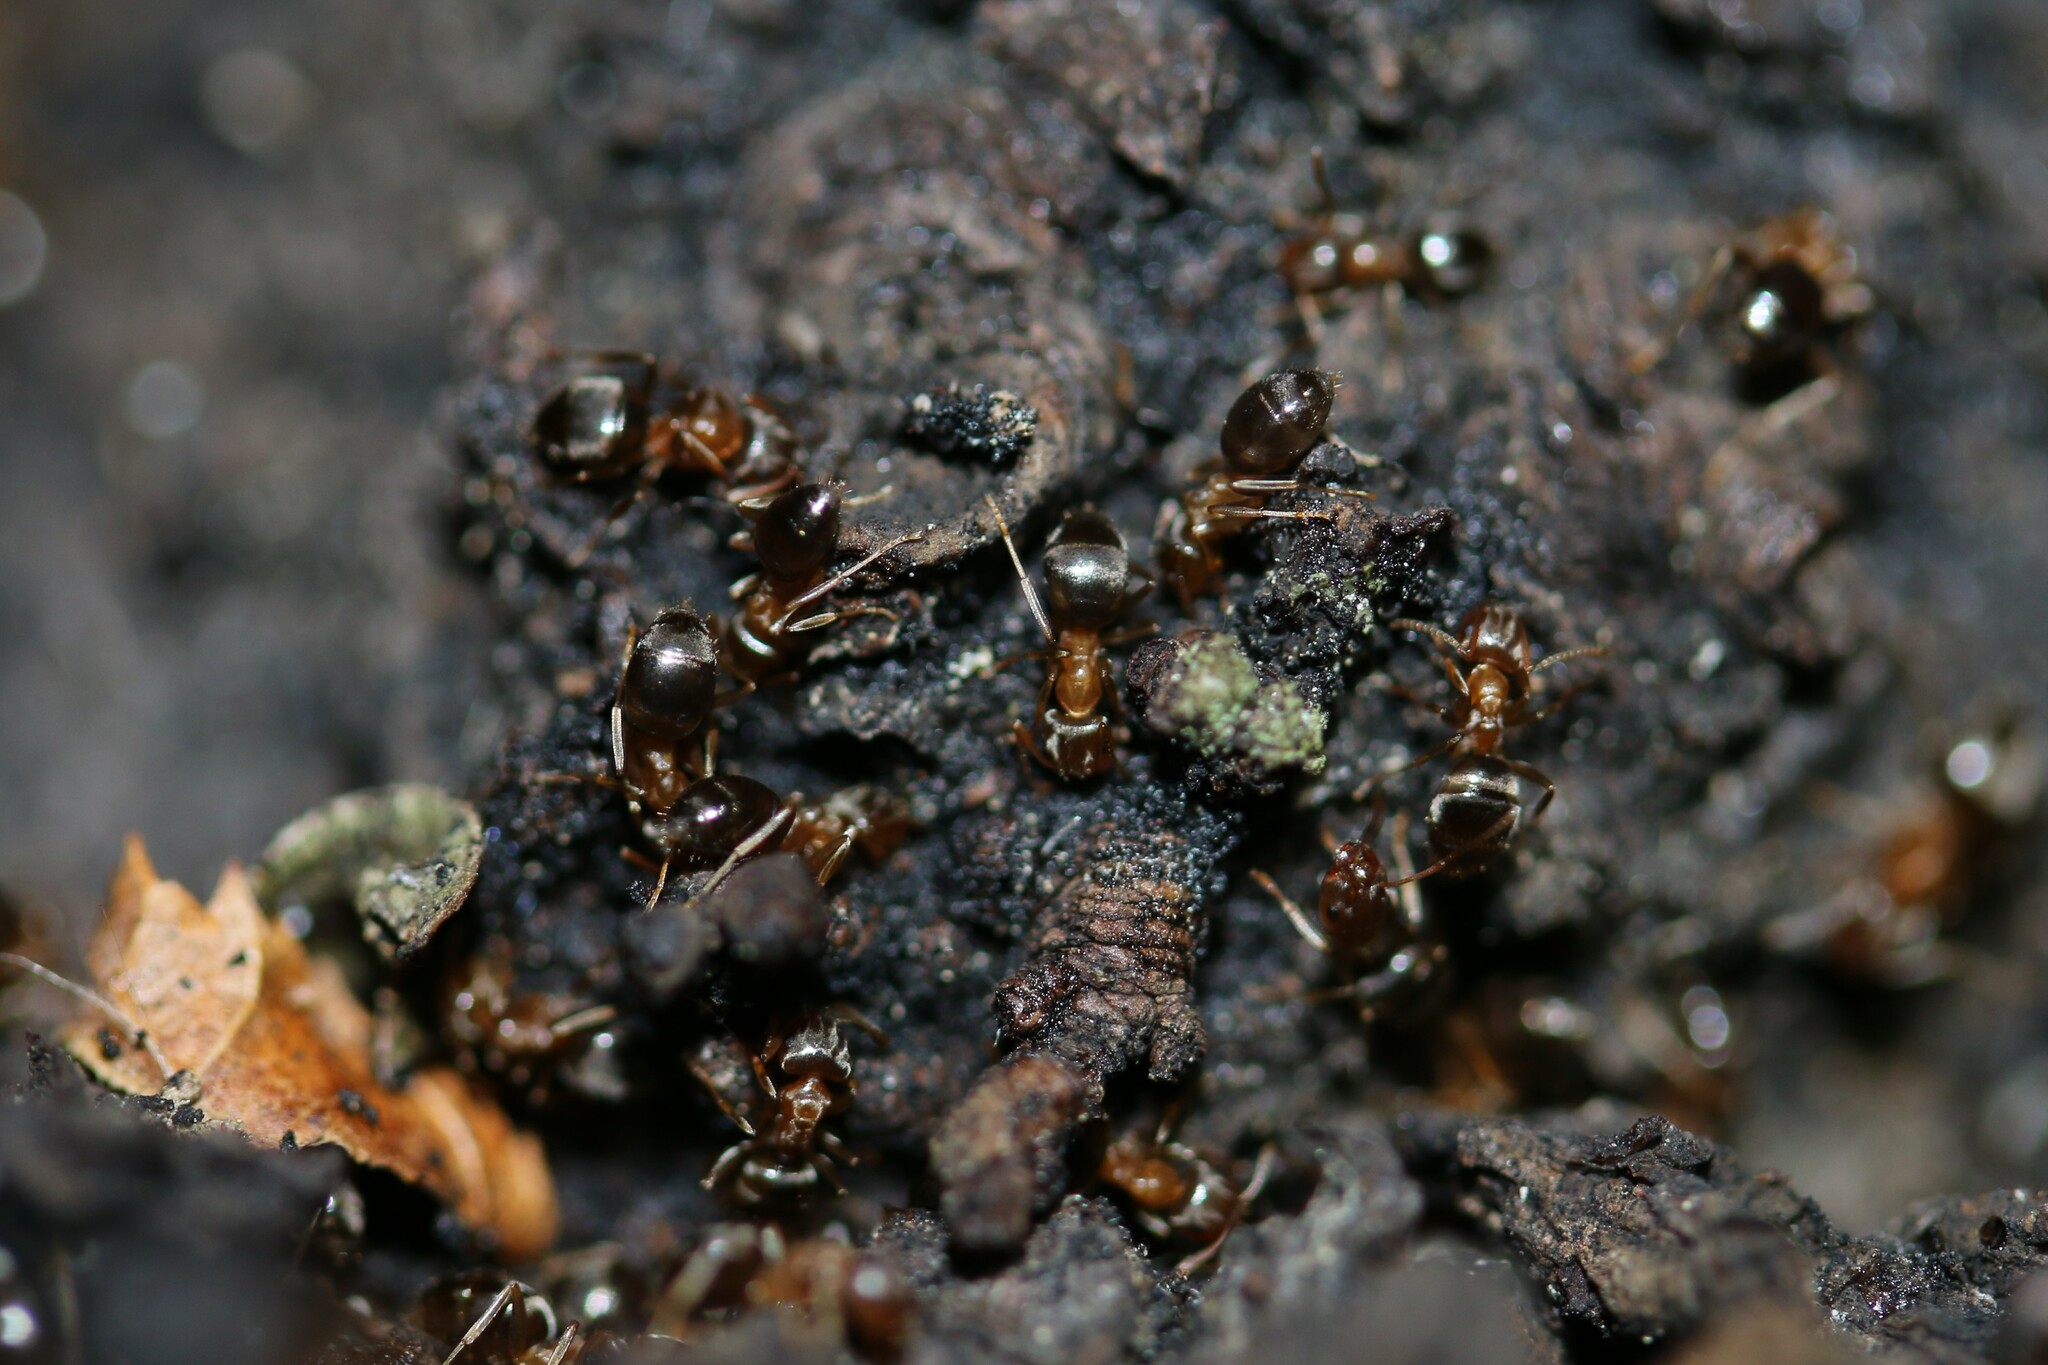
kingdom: Animalia
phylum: Arthropoda
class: Insecta
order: Hymenoptera
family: Formicidae
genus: Lasius
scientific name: Lasius brunneus
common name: Brown ant
